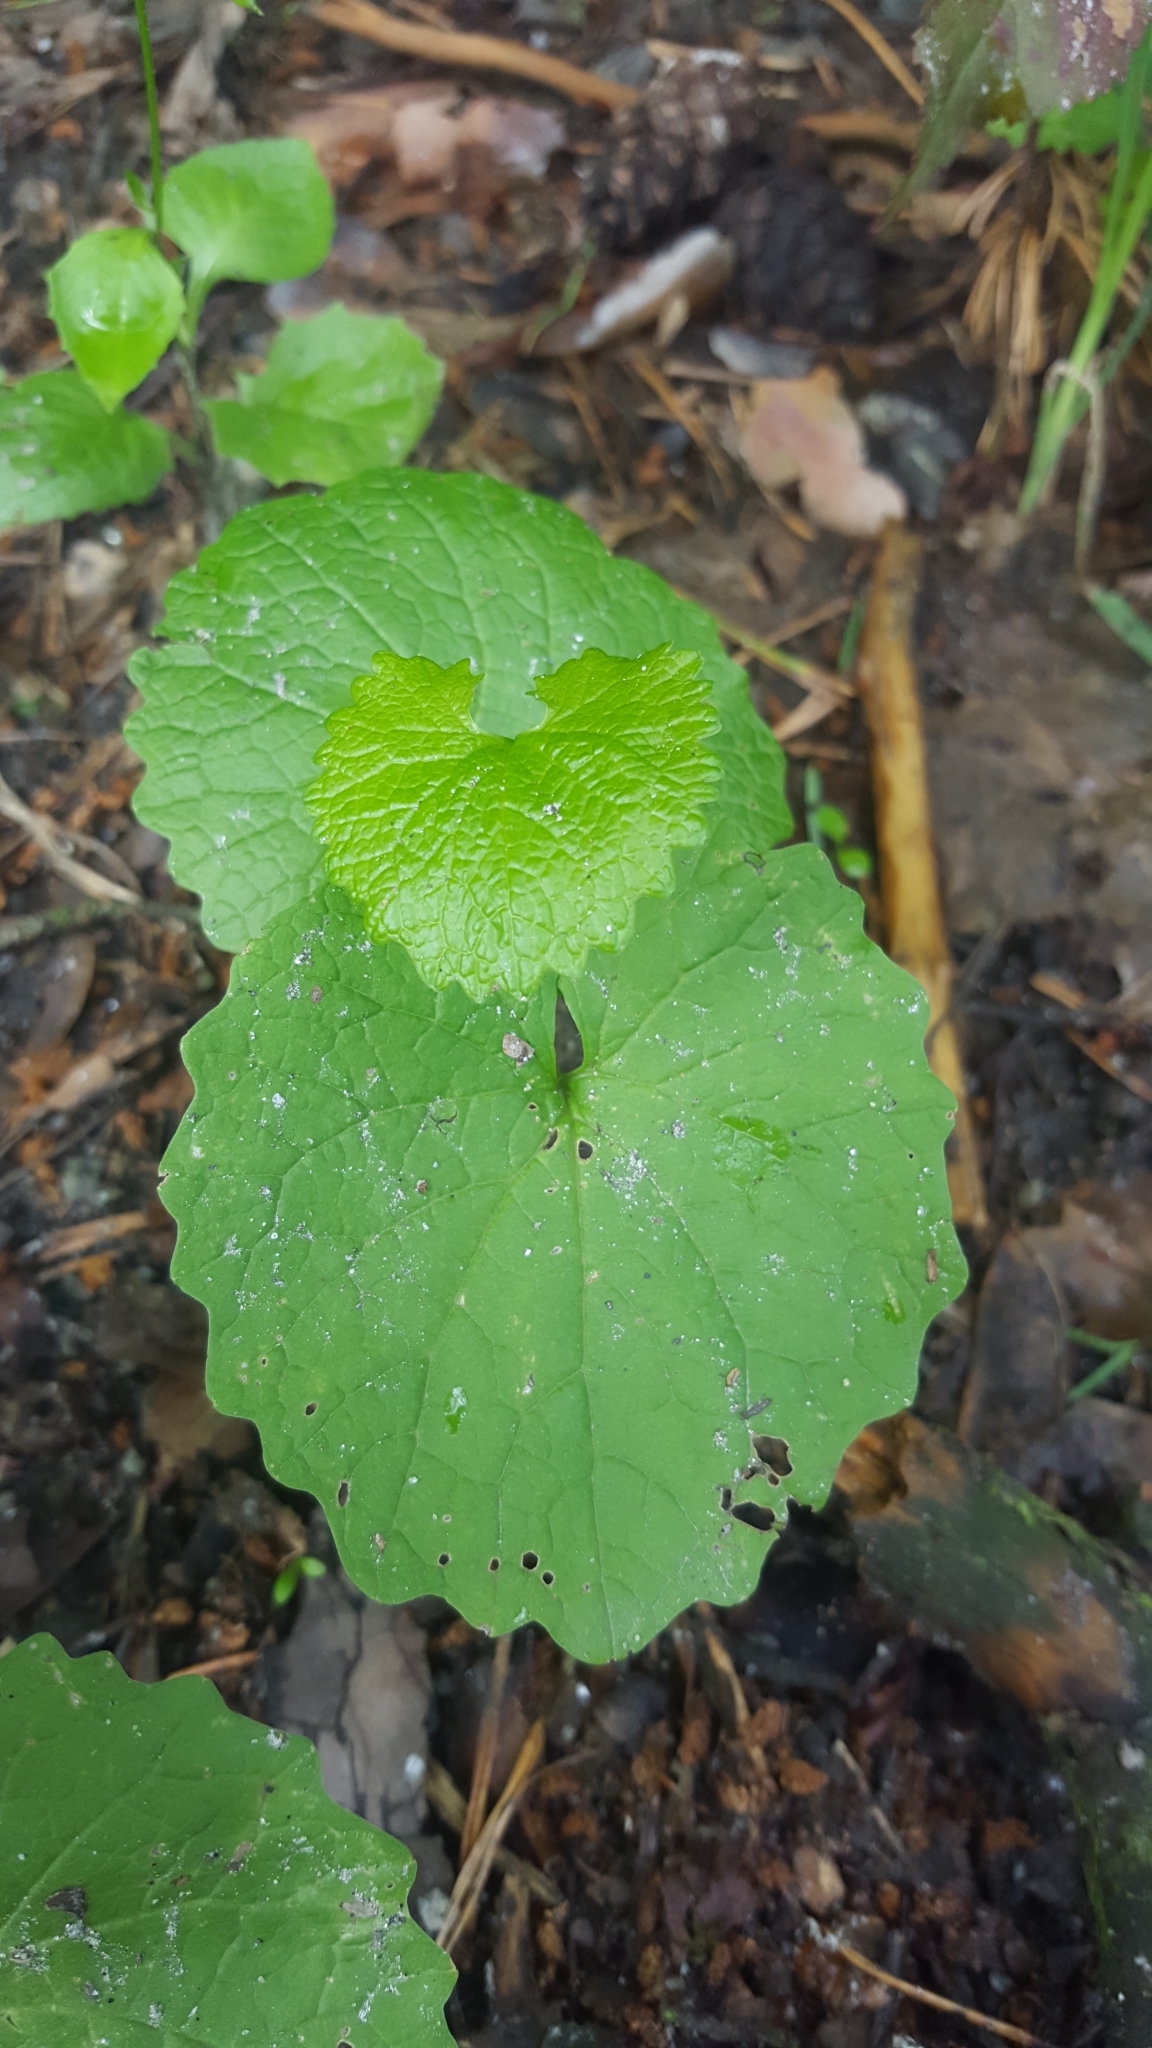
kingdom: Plantae
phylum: Tracheophyta
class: Magnoliopsida
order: Brassicales
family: Brassicaceae
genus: Alliaria
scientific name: Alliaria petiolata
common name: Garlic mustard
